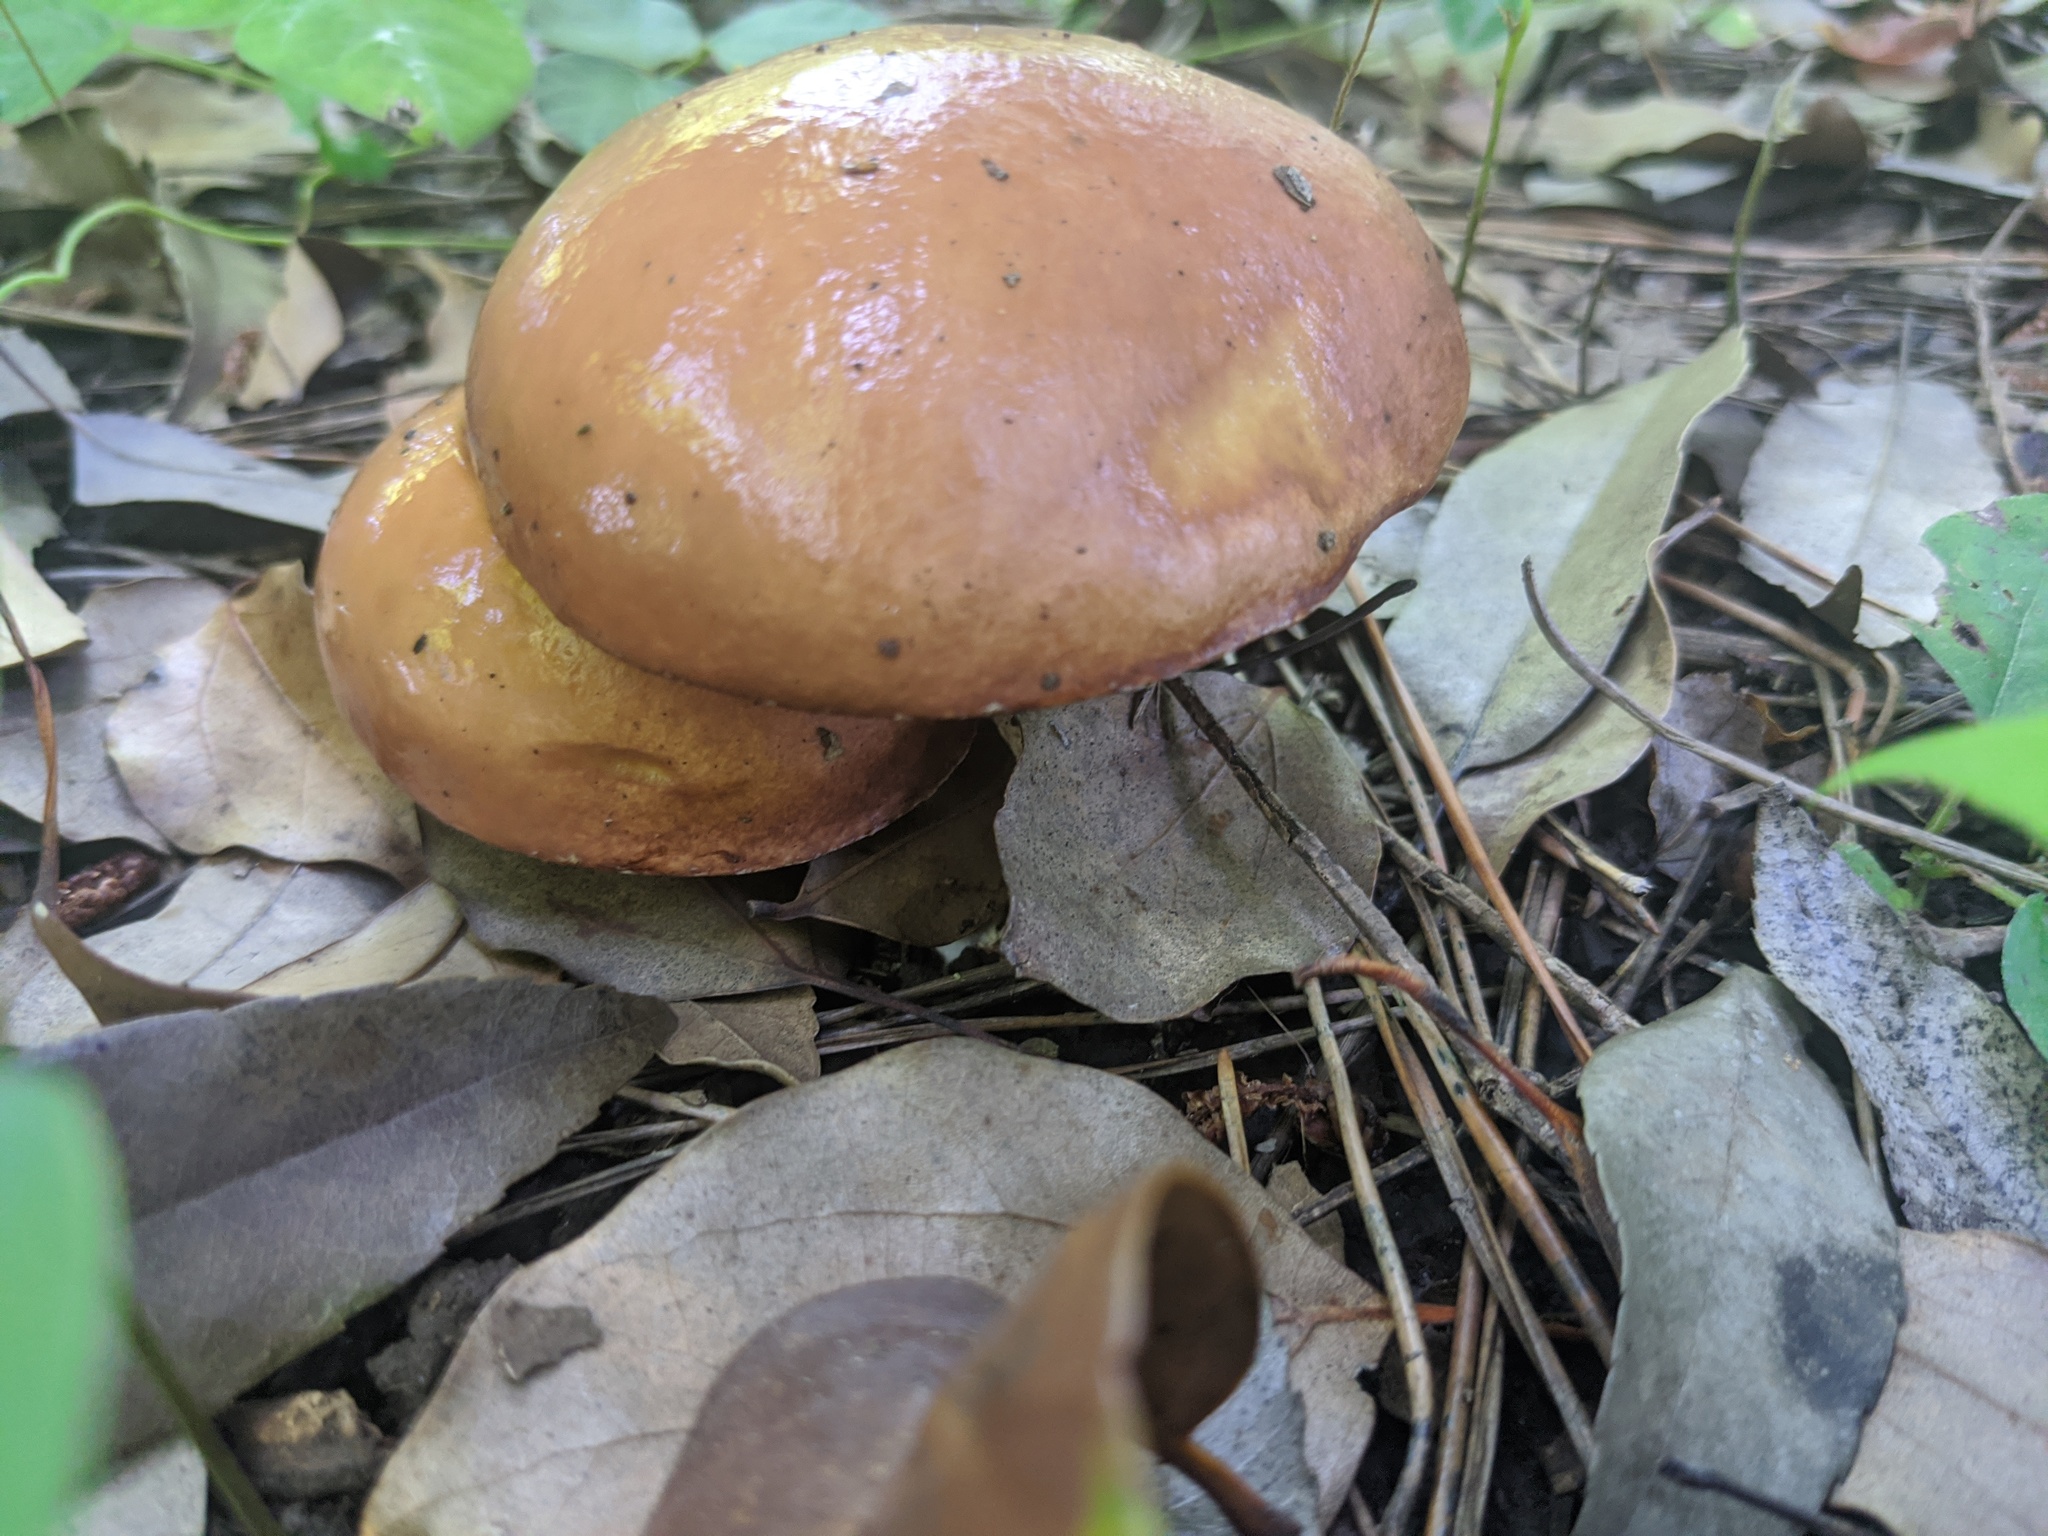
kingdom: Fungi
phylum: Basidiomycota
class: Agaricomycetes
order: Boletales
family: Suillaceae
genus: Suillus
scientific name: Suillus granulatus
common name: Weeping bolete
